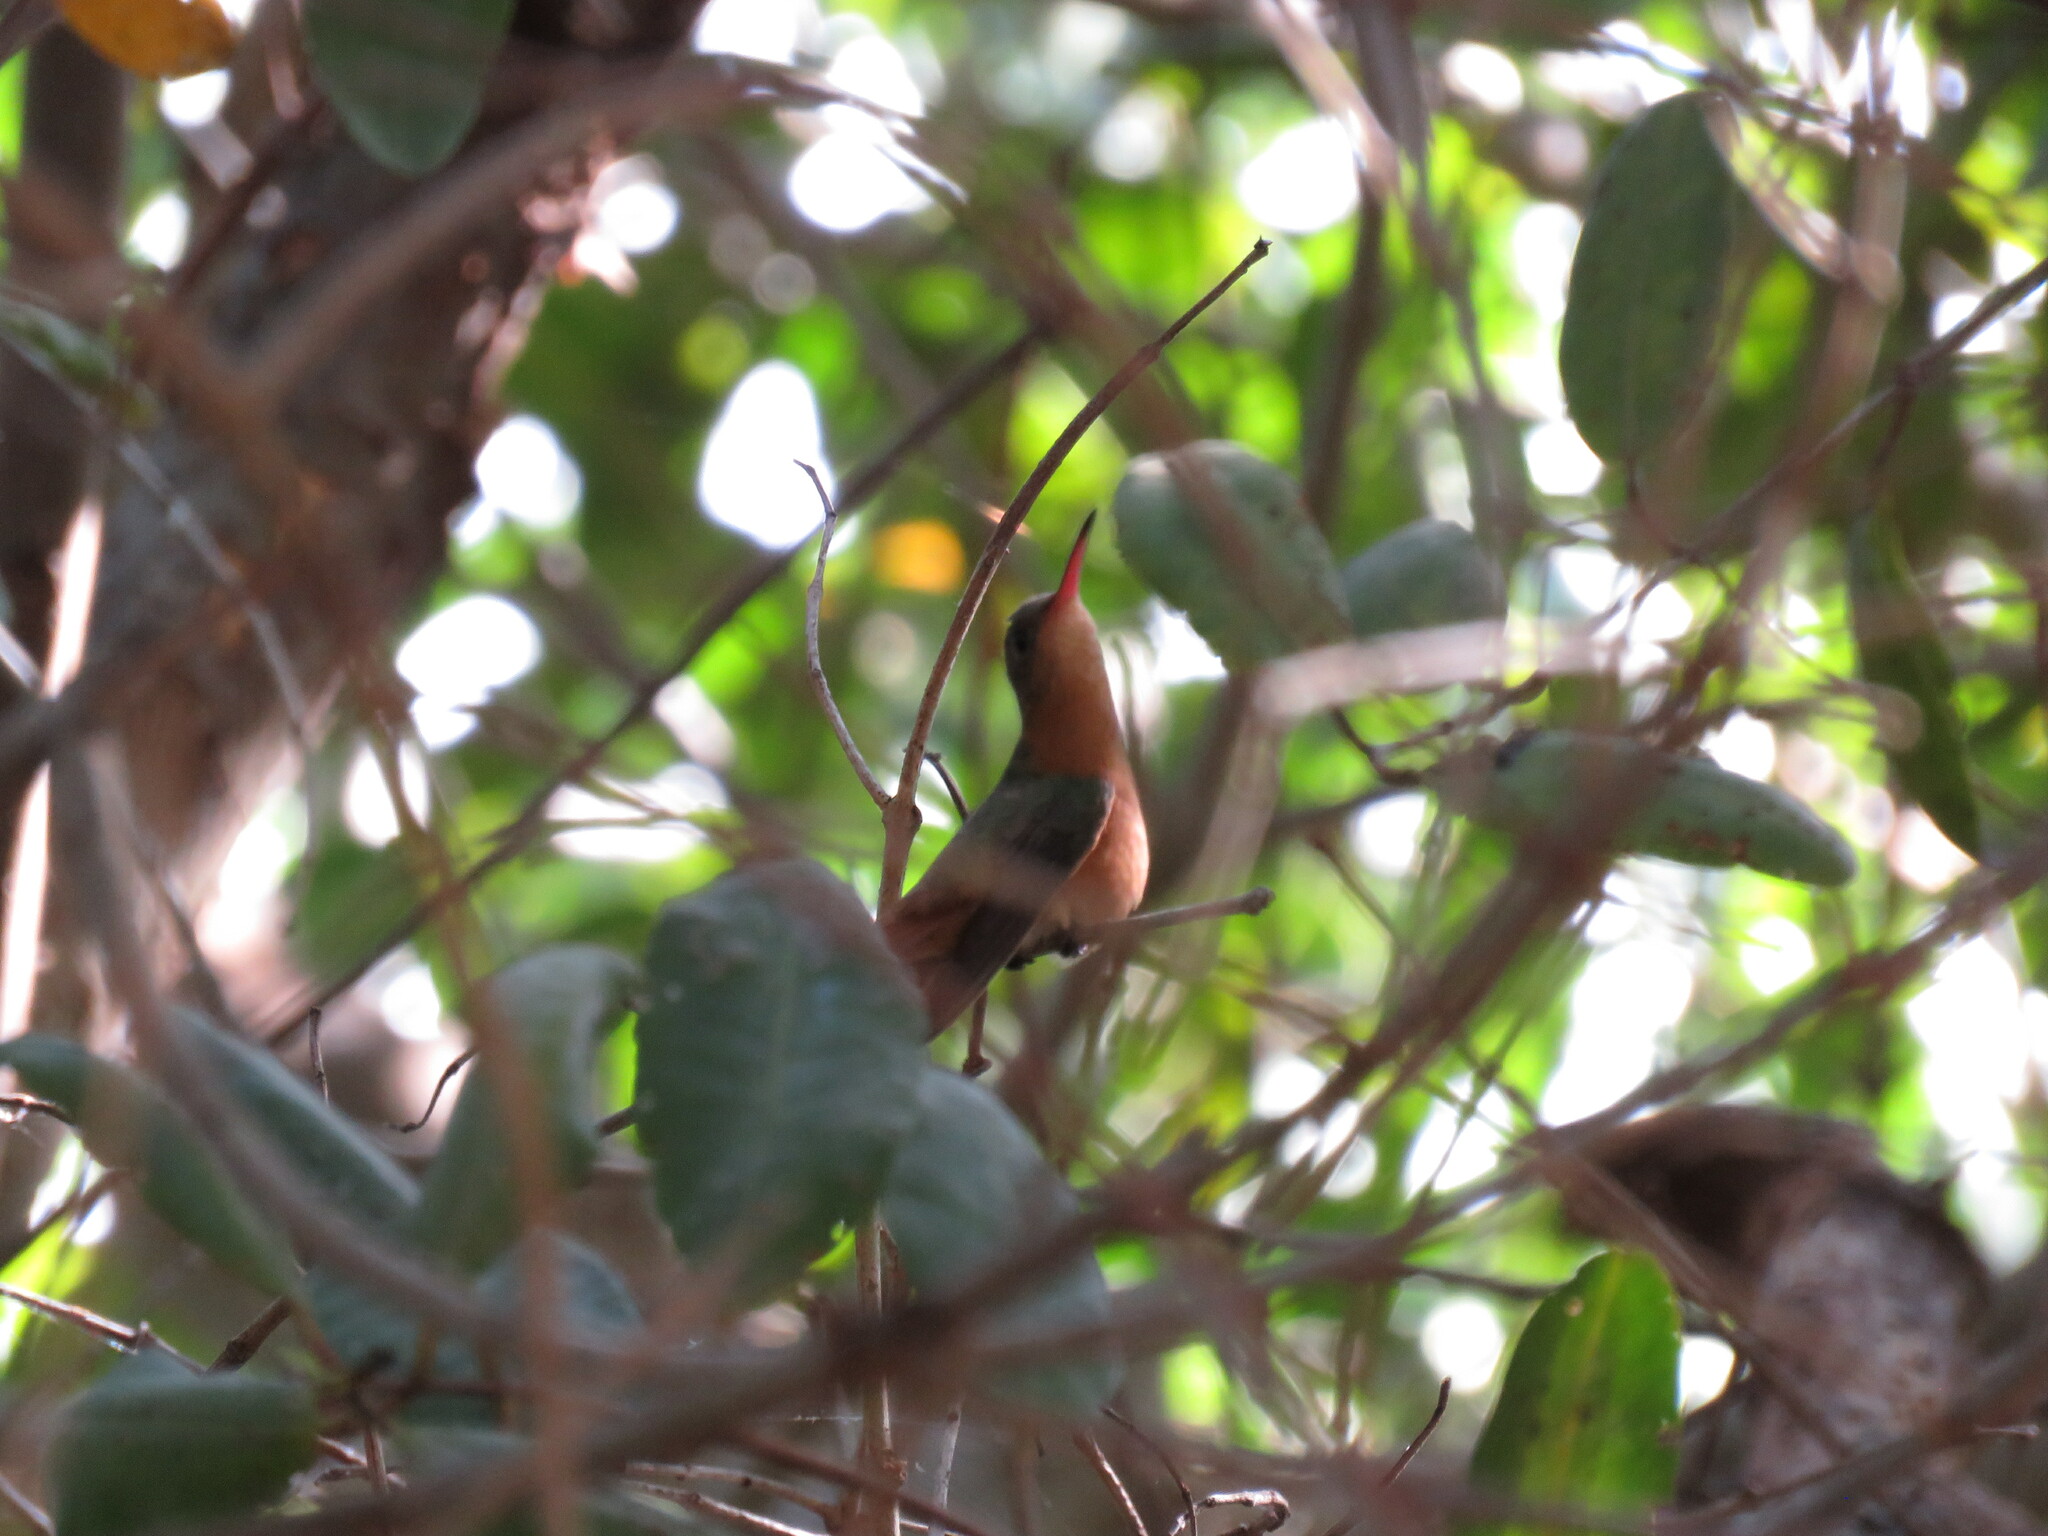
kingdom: Animalia
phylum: Chordata
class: Aves
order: Apodiformes
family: Trochilidae
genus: Amazilia
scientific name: Amazilia rutila
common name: Cinnamon hummingbird
